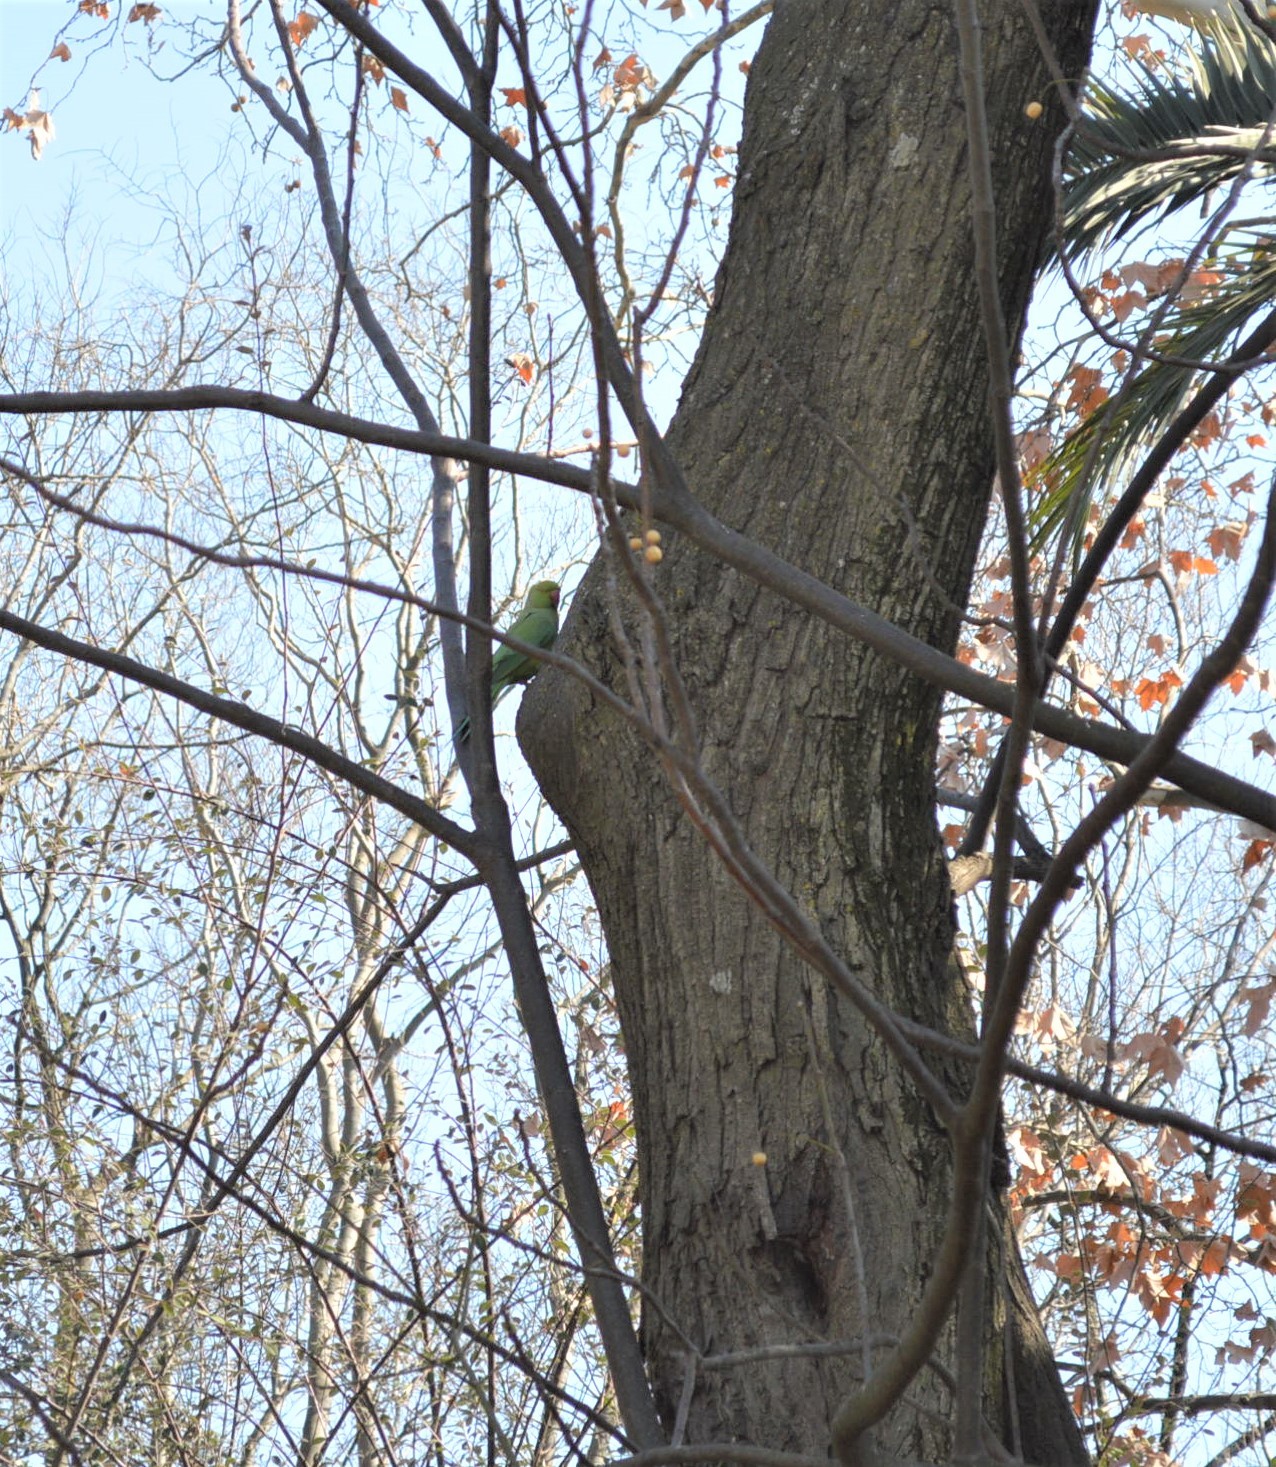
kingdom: Animalia
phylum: Chordata
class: Aves
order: Psittaciformes
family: Psittacidae
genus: Psittacula
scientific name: Psittacula krameri
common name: Rose-ringed parakeet
